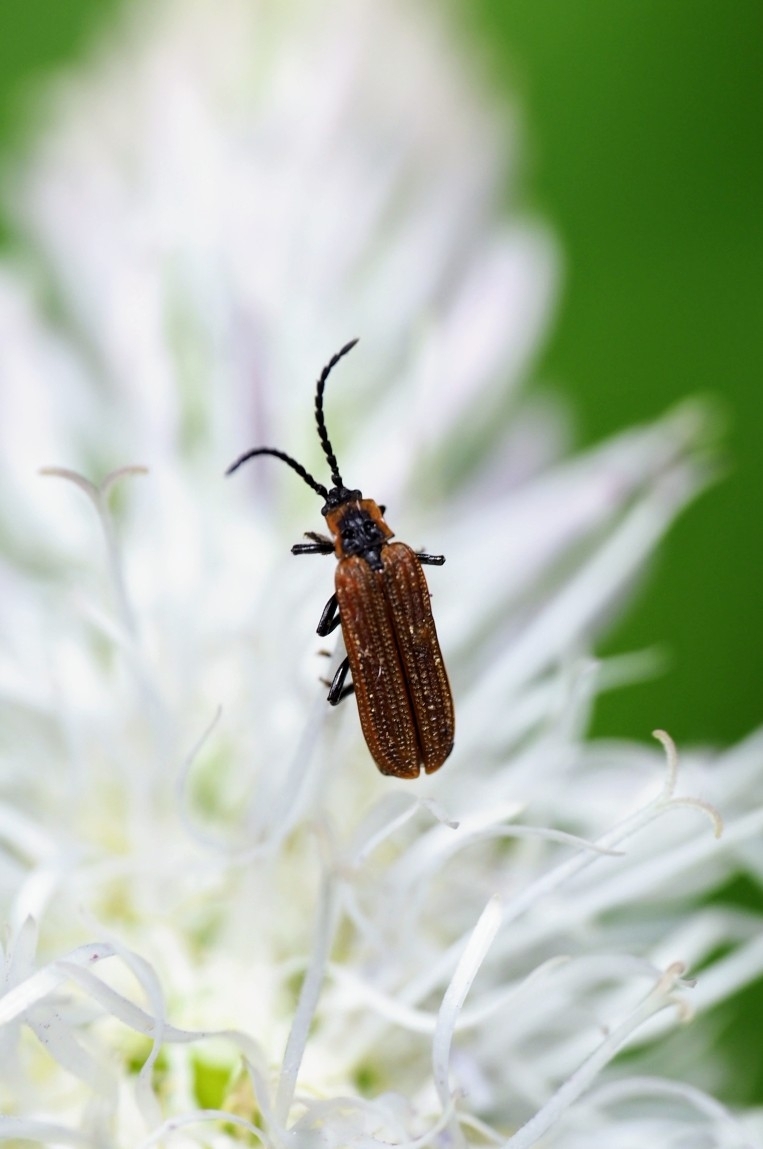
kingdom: Animalia
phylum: Arthropoda
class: Insecta
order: Coleoptera
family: Lycidae
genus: Erotides
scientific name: Erotides cosnardi
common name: Cosnard's net-winged beetle
